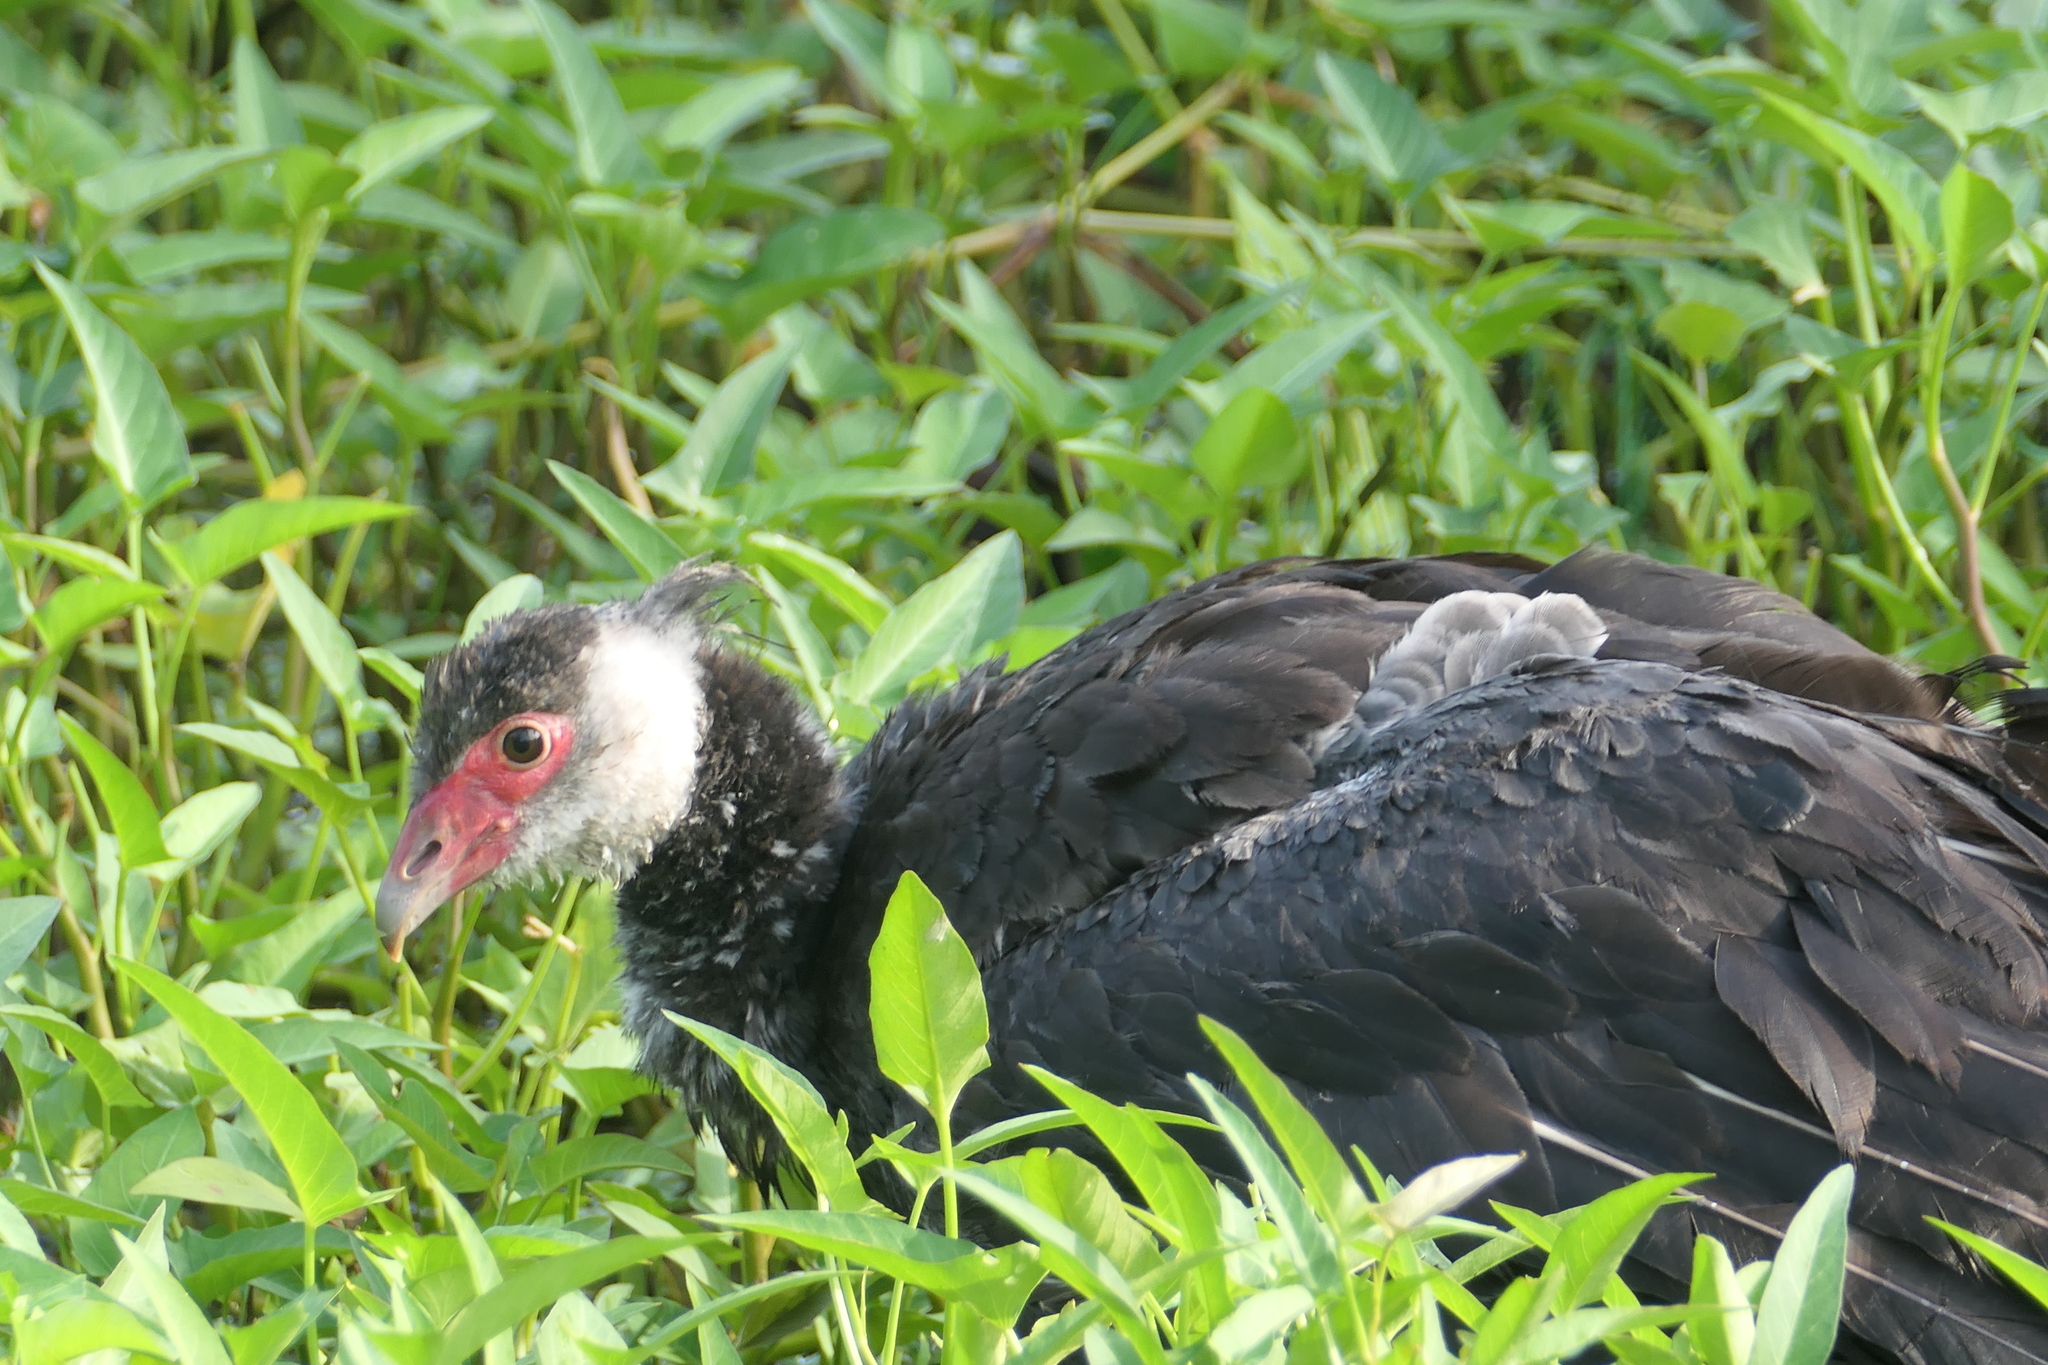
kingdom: Animalia
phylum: Chordata
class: Aves
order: Anseriformes
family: Anhimidae
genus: Chauna
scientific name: Chauna chavaria
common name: Northern screamer
